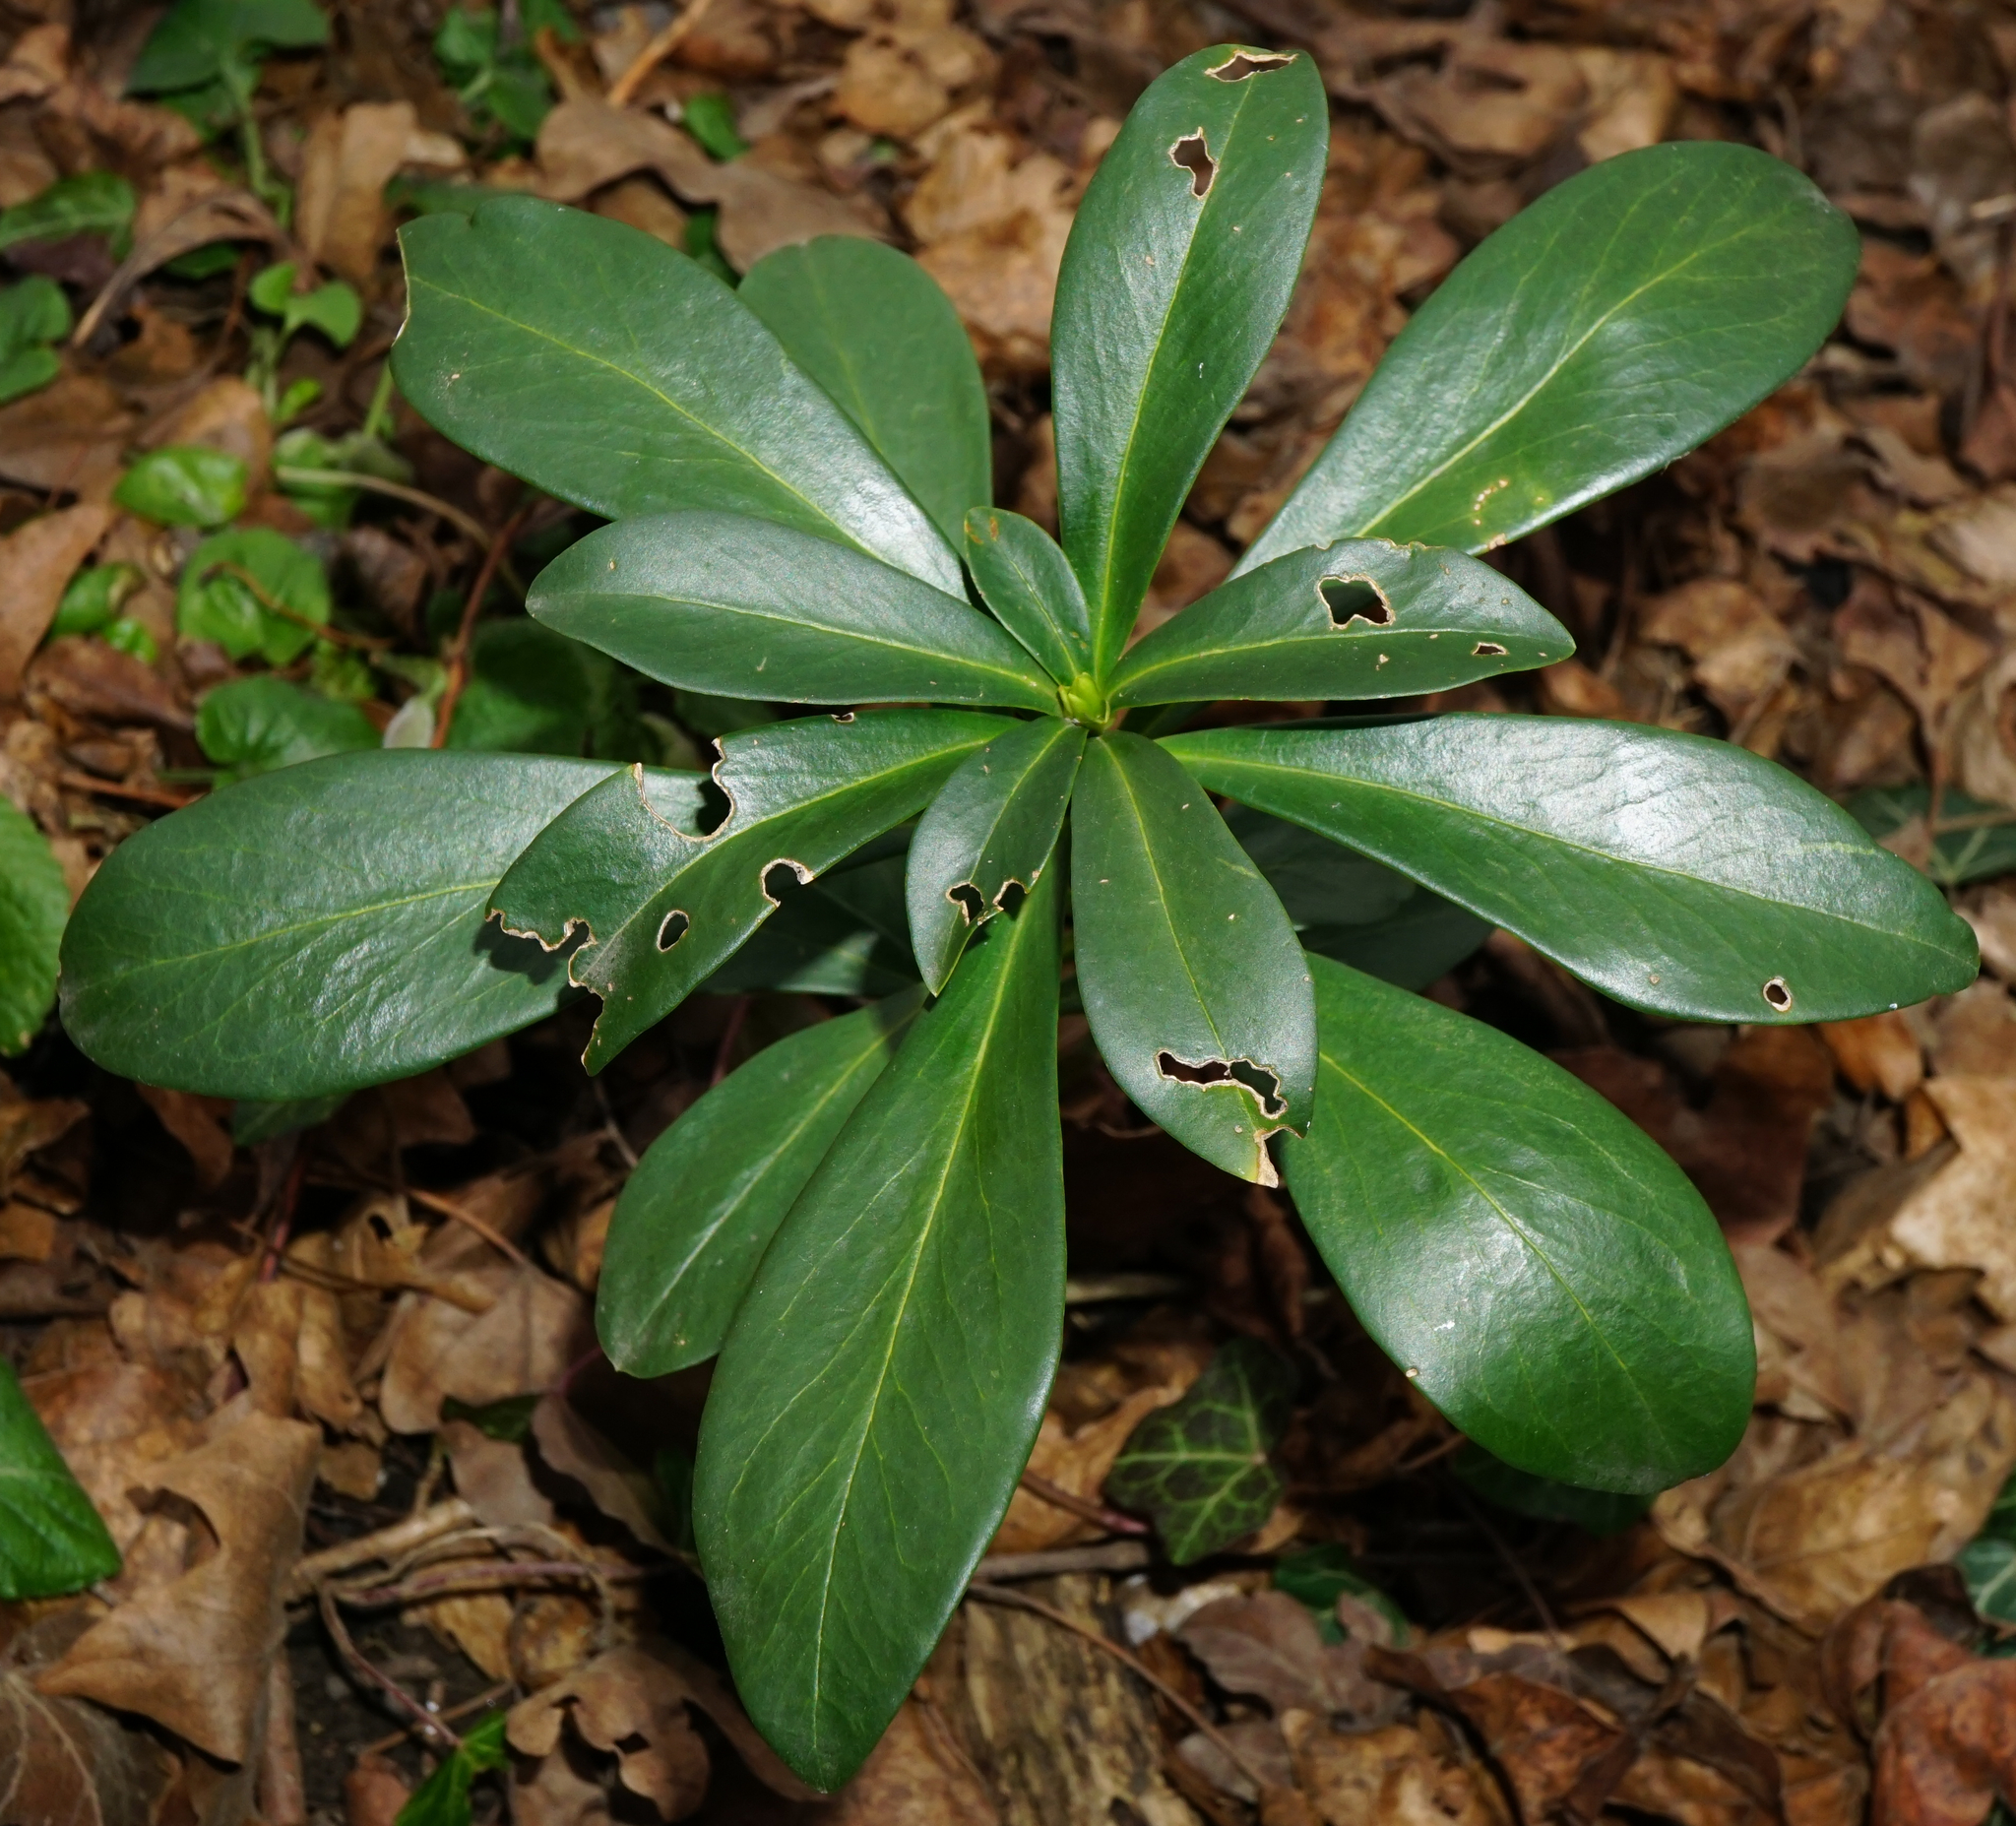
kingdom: Plantae
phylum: Tracheophyta
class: Magnoliopsida
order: Malvales
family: Thymelaeaceae
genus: Daphne
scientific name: Daphne laureola
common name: Spurge-laurel
